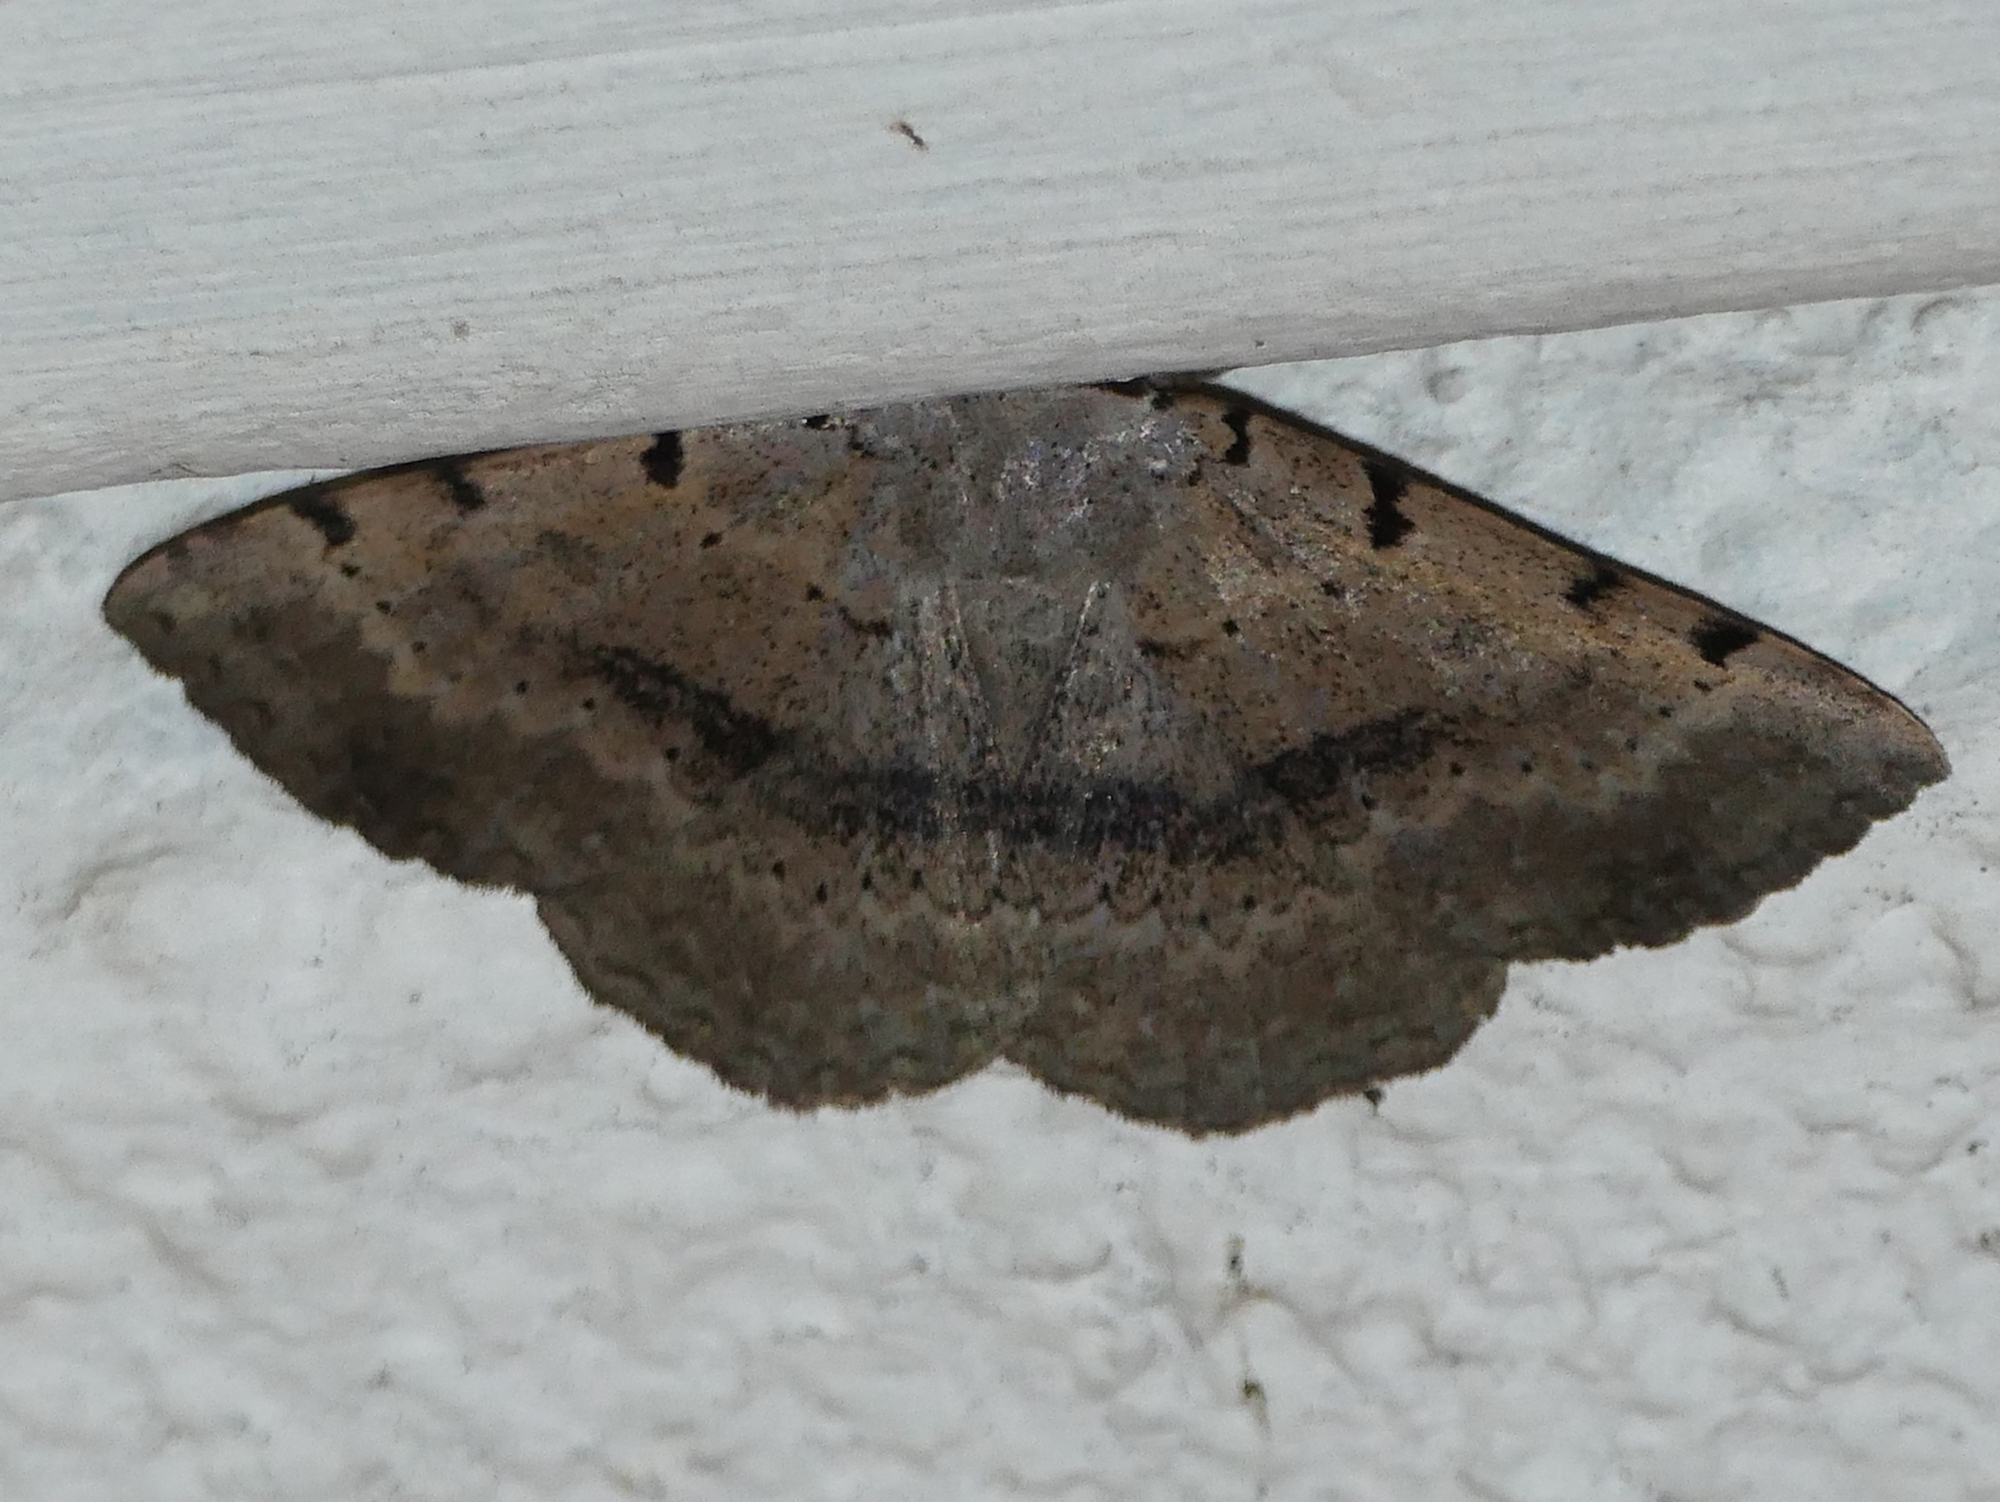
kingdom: Animalia
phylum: Arthropoda
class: Insecta
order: Lepidoptera
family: Erebidae
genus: Spiloloma
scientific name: Spiloloma lunilinea
